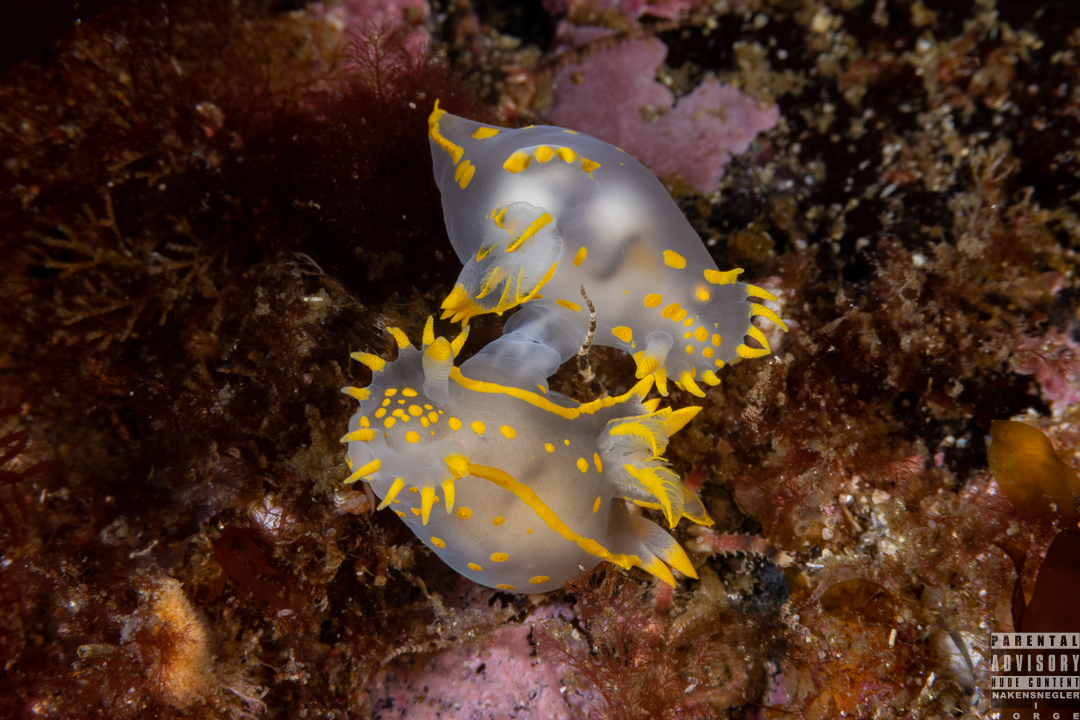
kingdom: Animalia
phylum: Mollusca
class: Gastropoda
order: Nudibranchia
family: Polyceridae
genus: Polycera
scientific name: Polycera faeroensis
